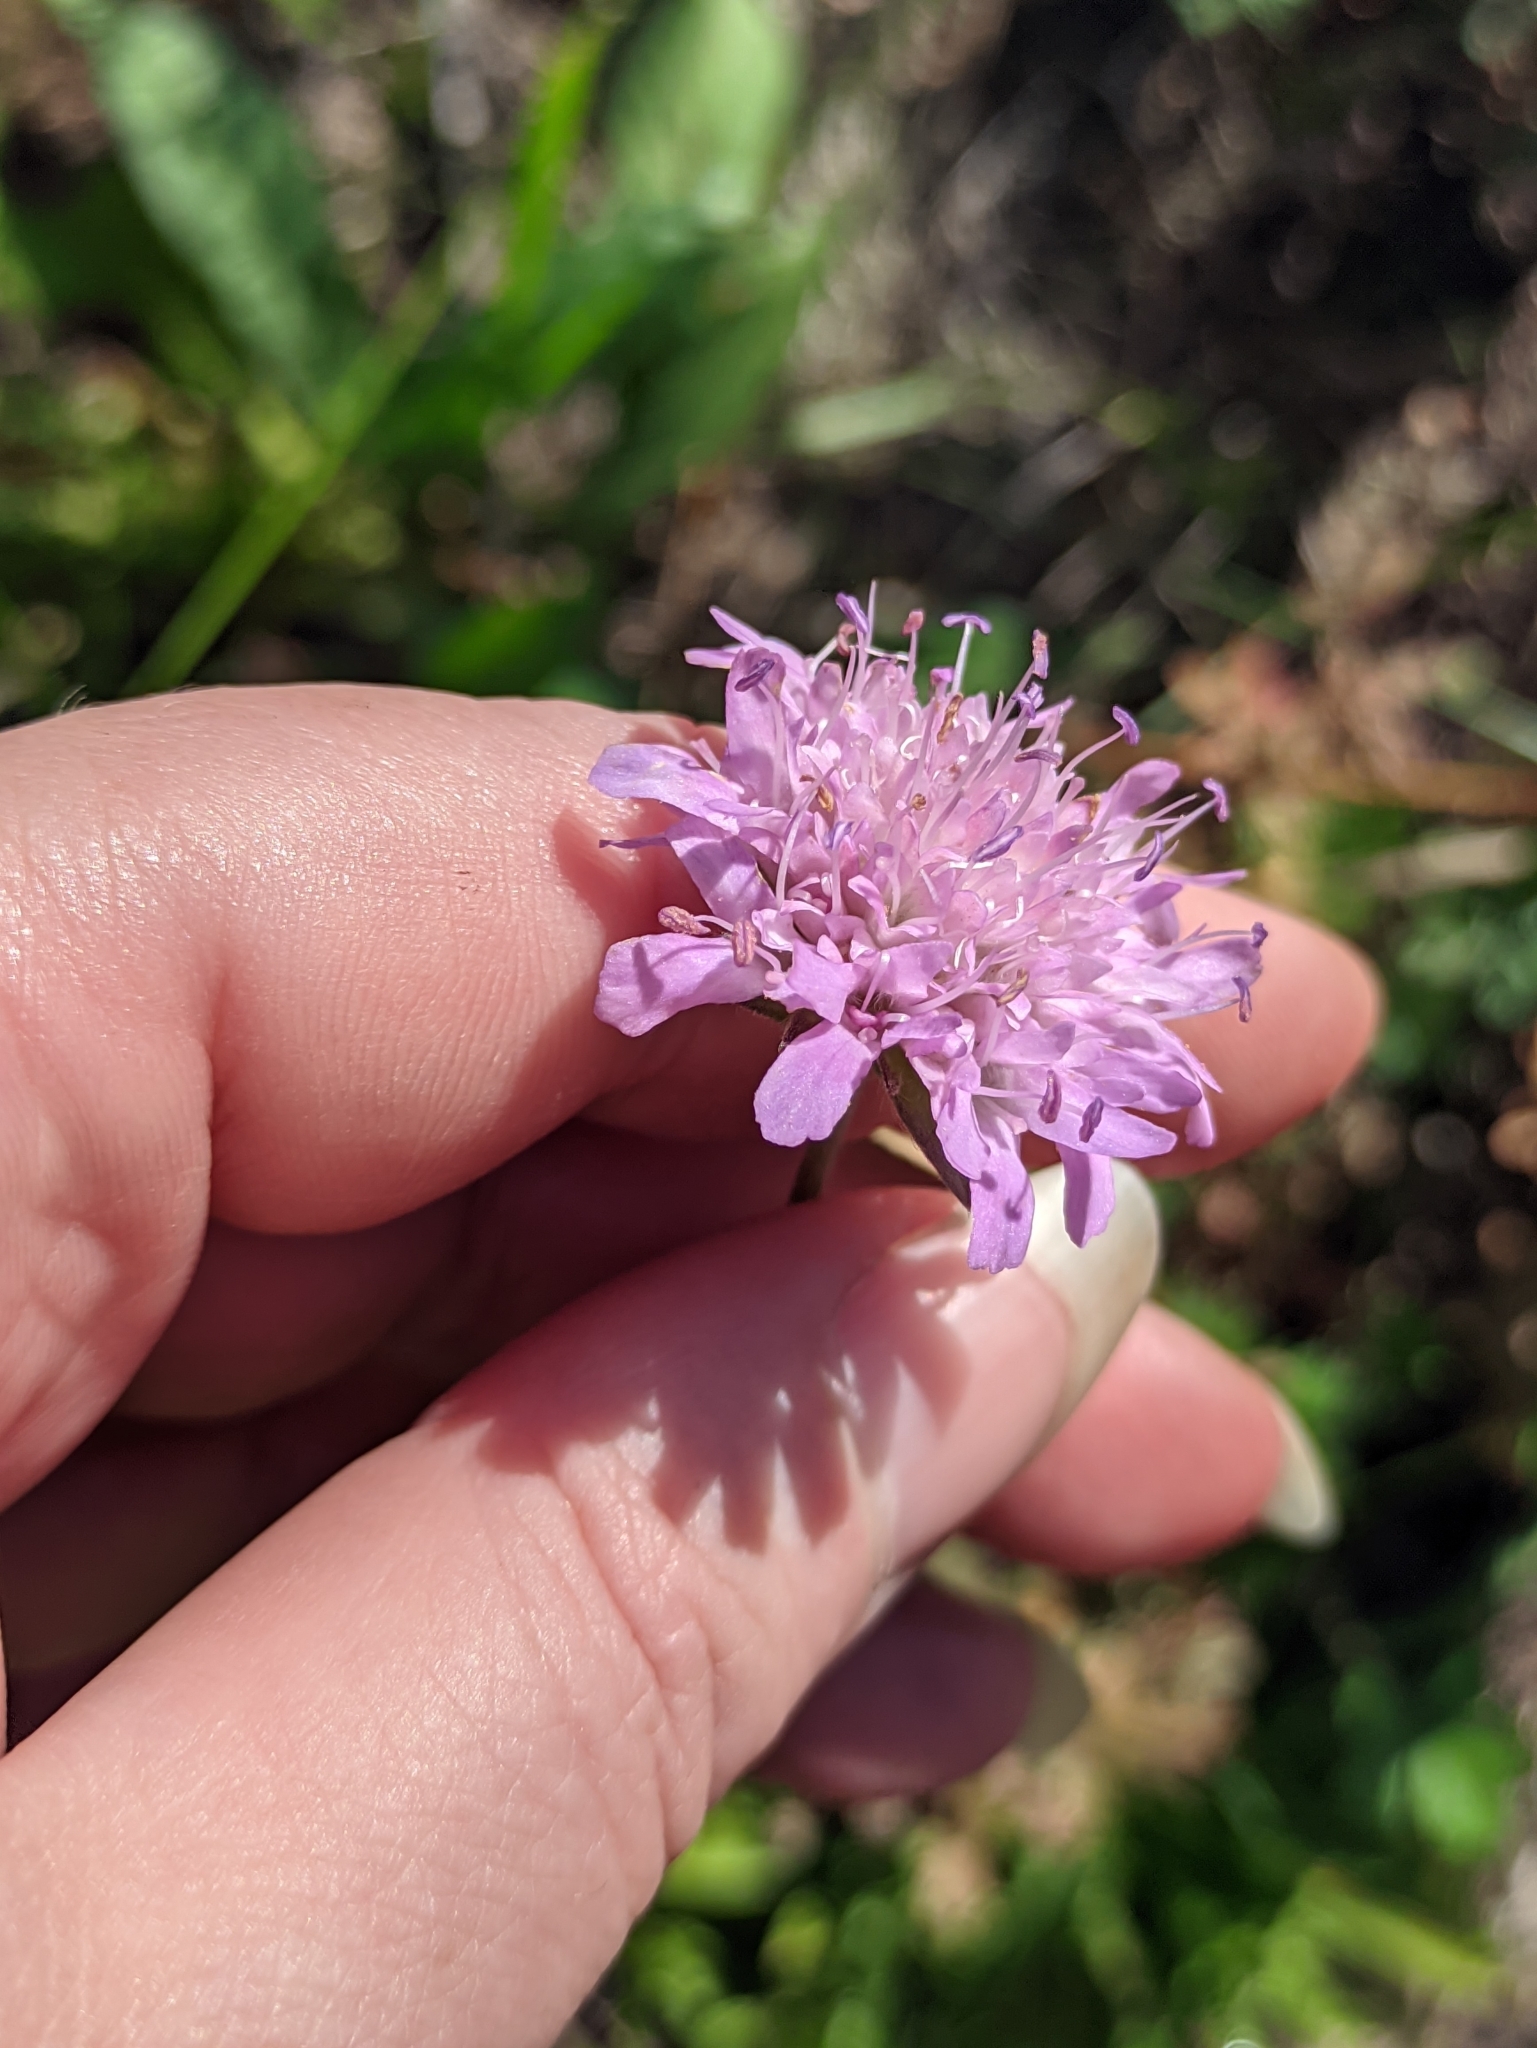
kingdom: Plantae
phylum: Tracheophyta
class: Magnoliopsida
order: Dipsacales
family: Caprifoliaceae
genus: Knautia
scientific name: Knautia arvensis
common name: Field scabiosa
